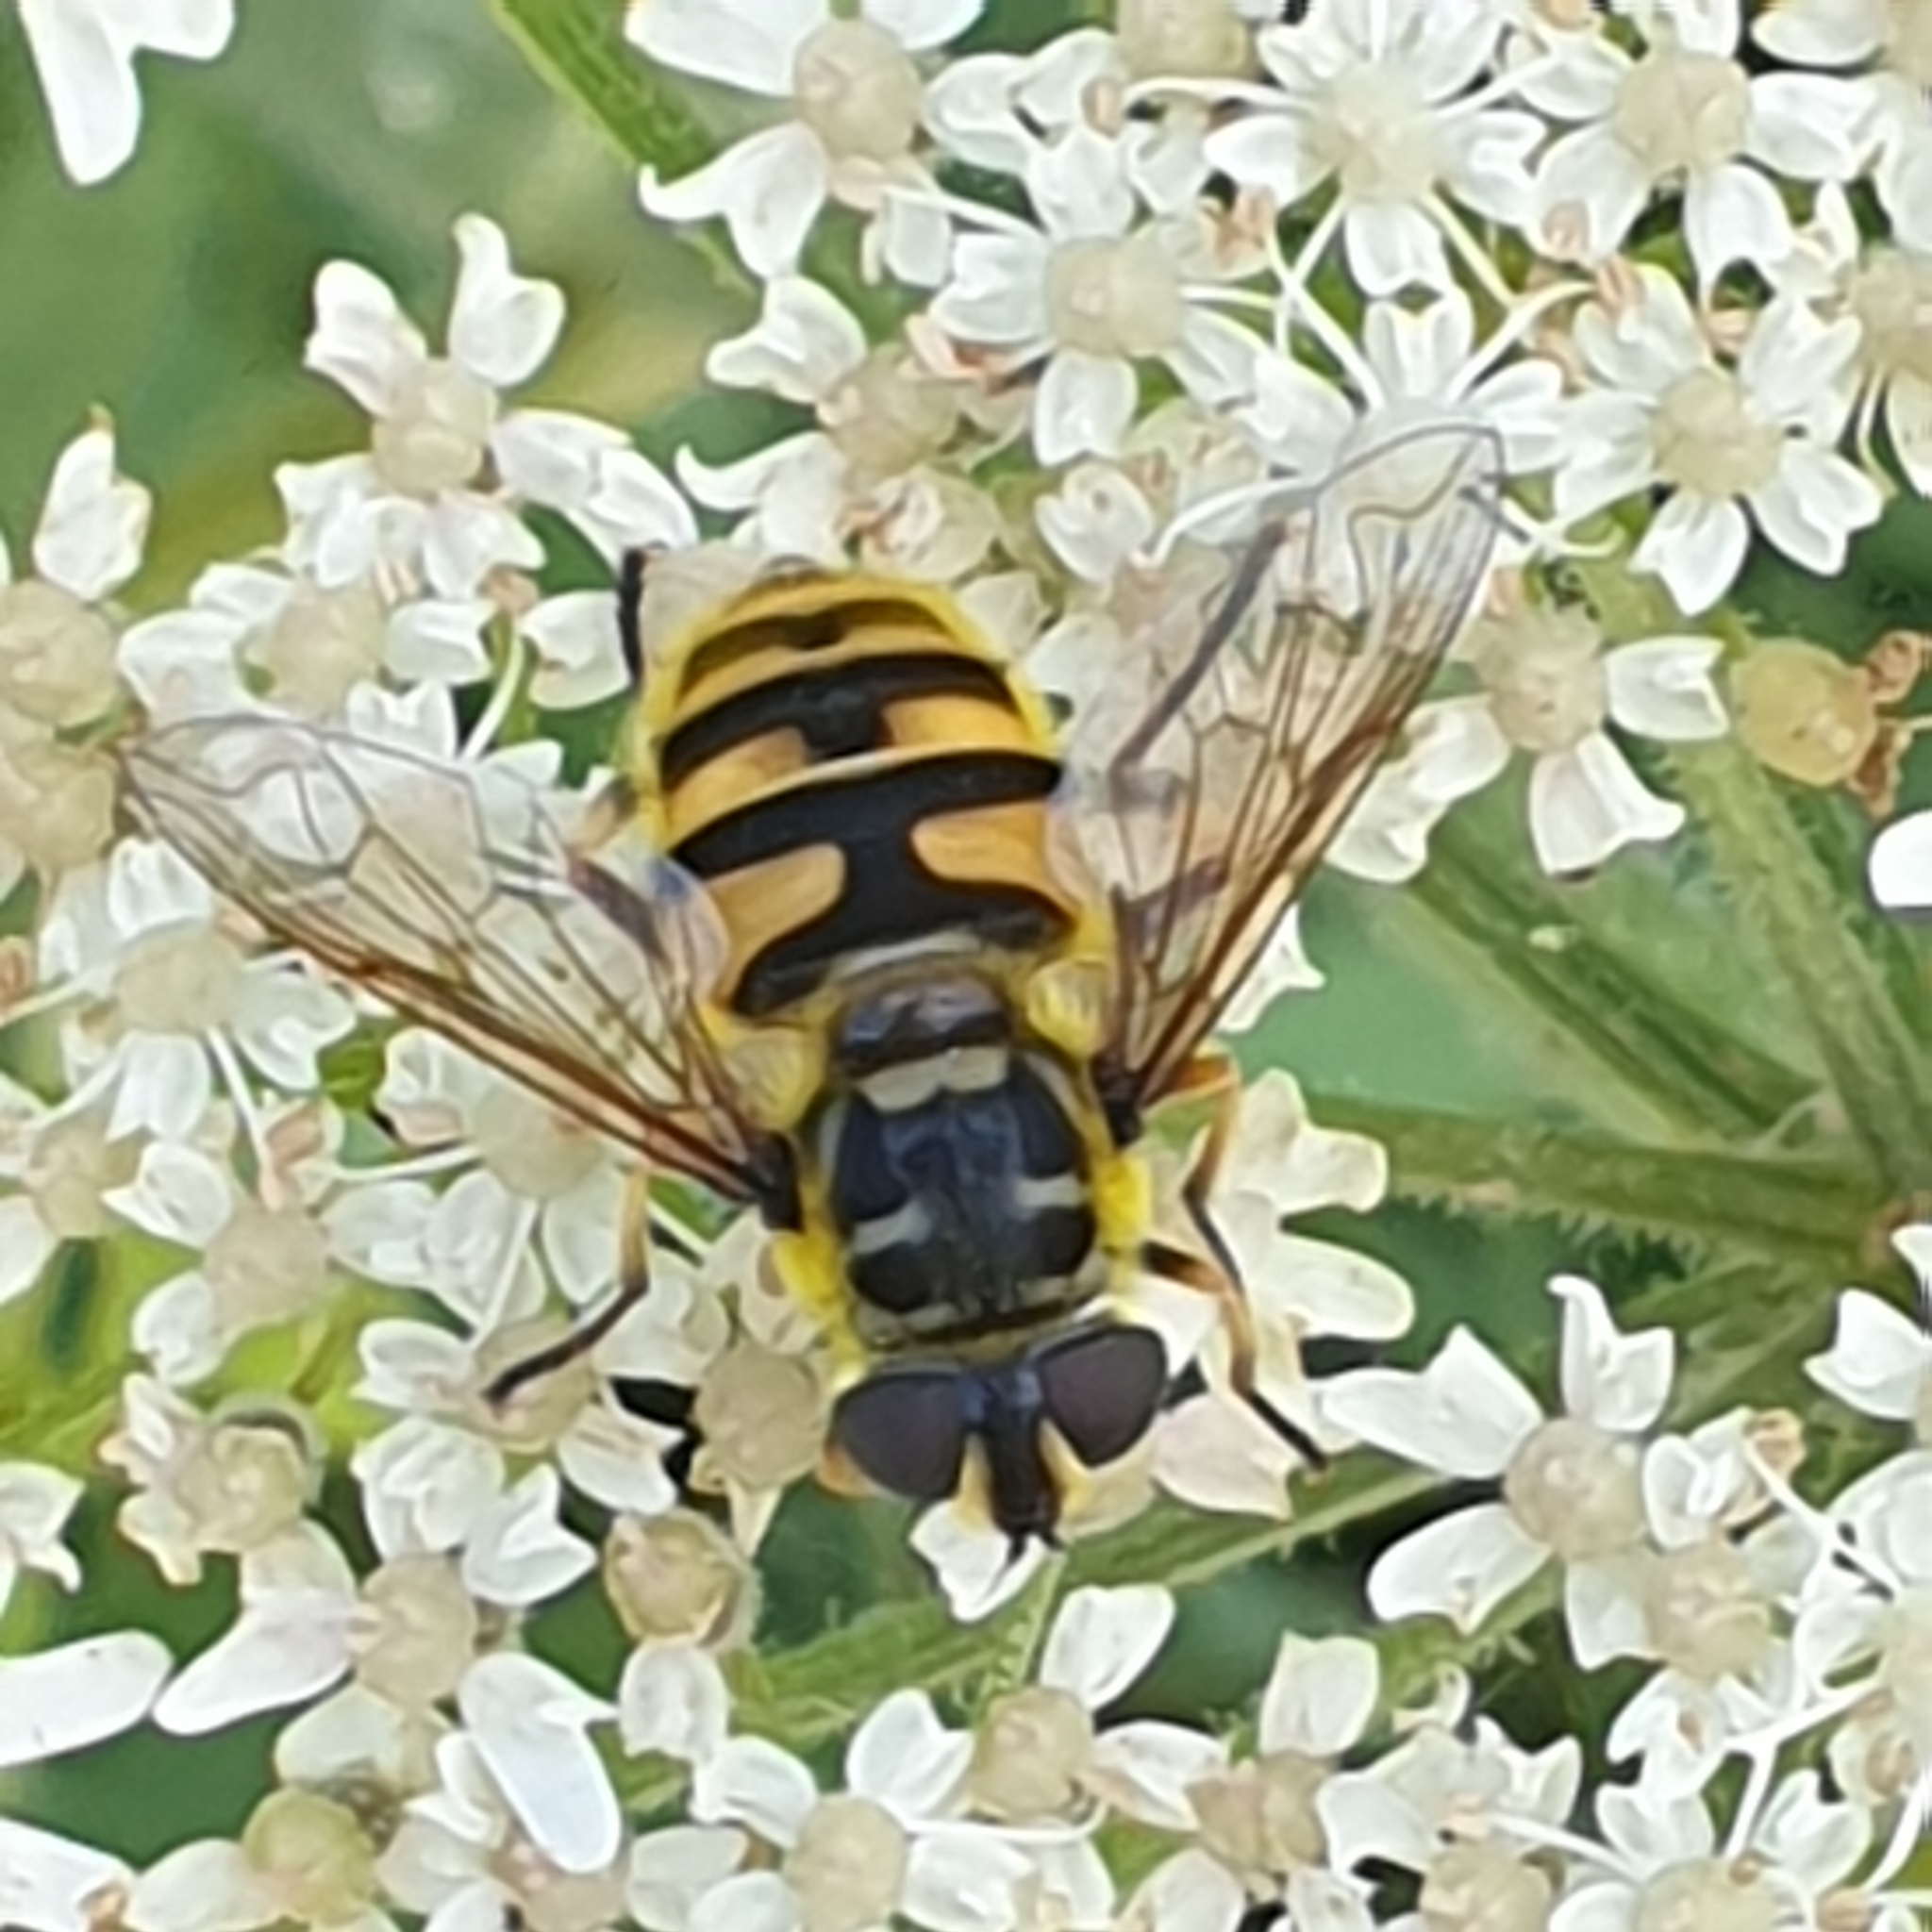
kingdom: Animalia
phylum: Arthropoda
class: Insecta
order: Diptera
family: Syrphidae
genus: Myathropa
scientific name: Myathropa florea
